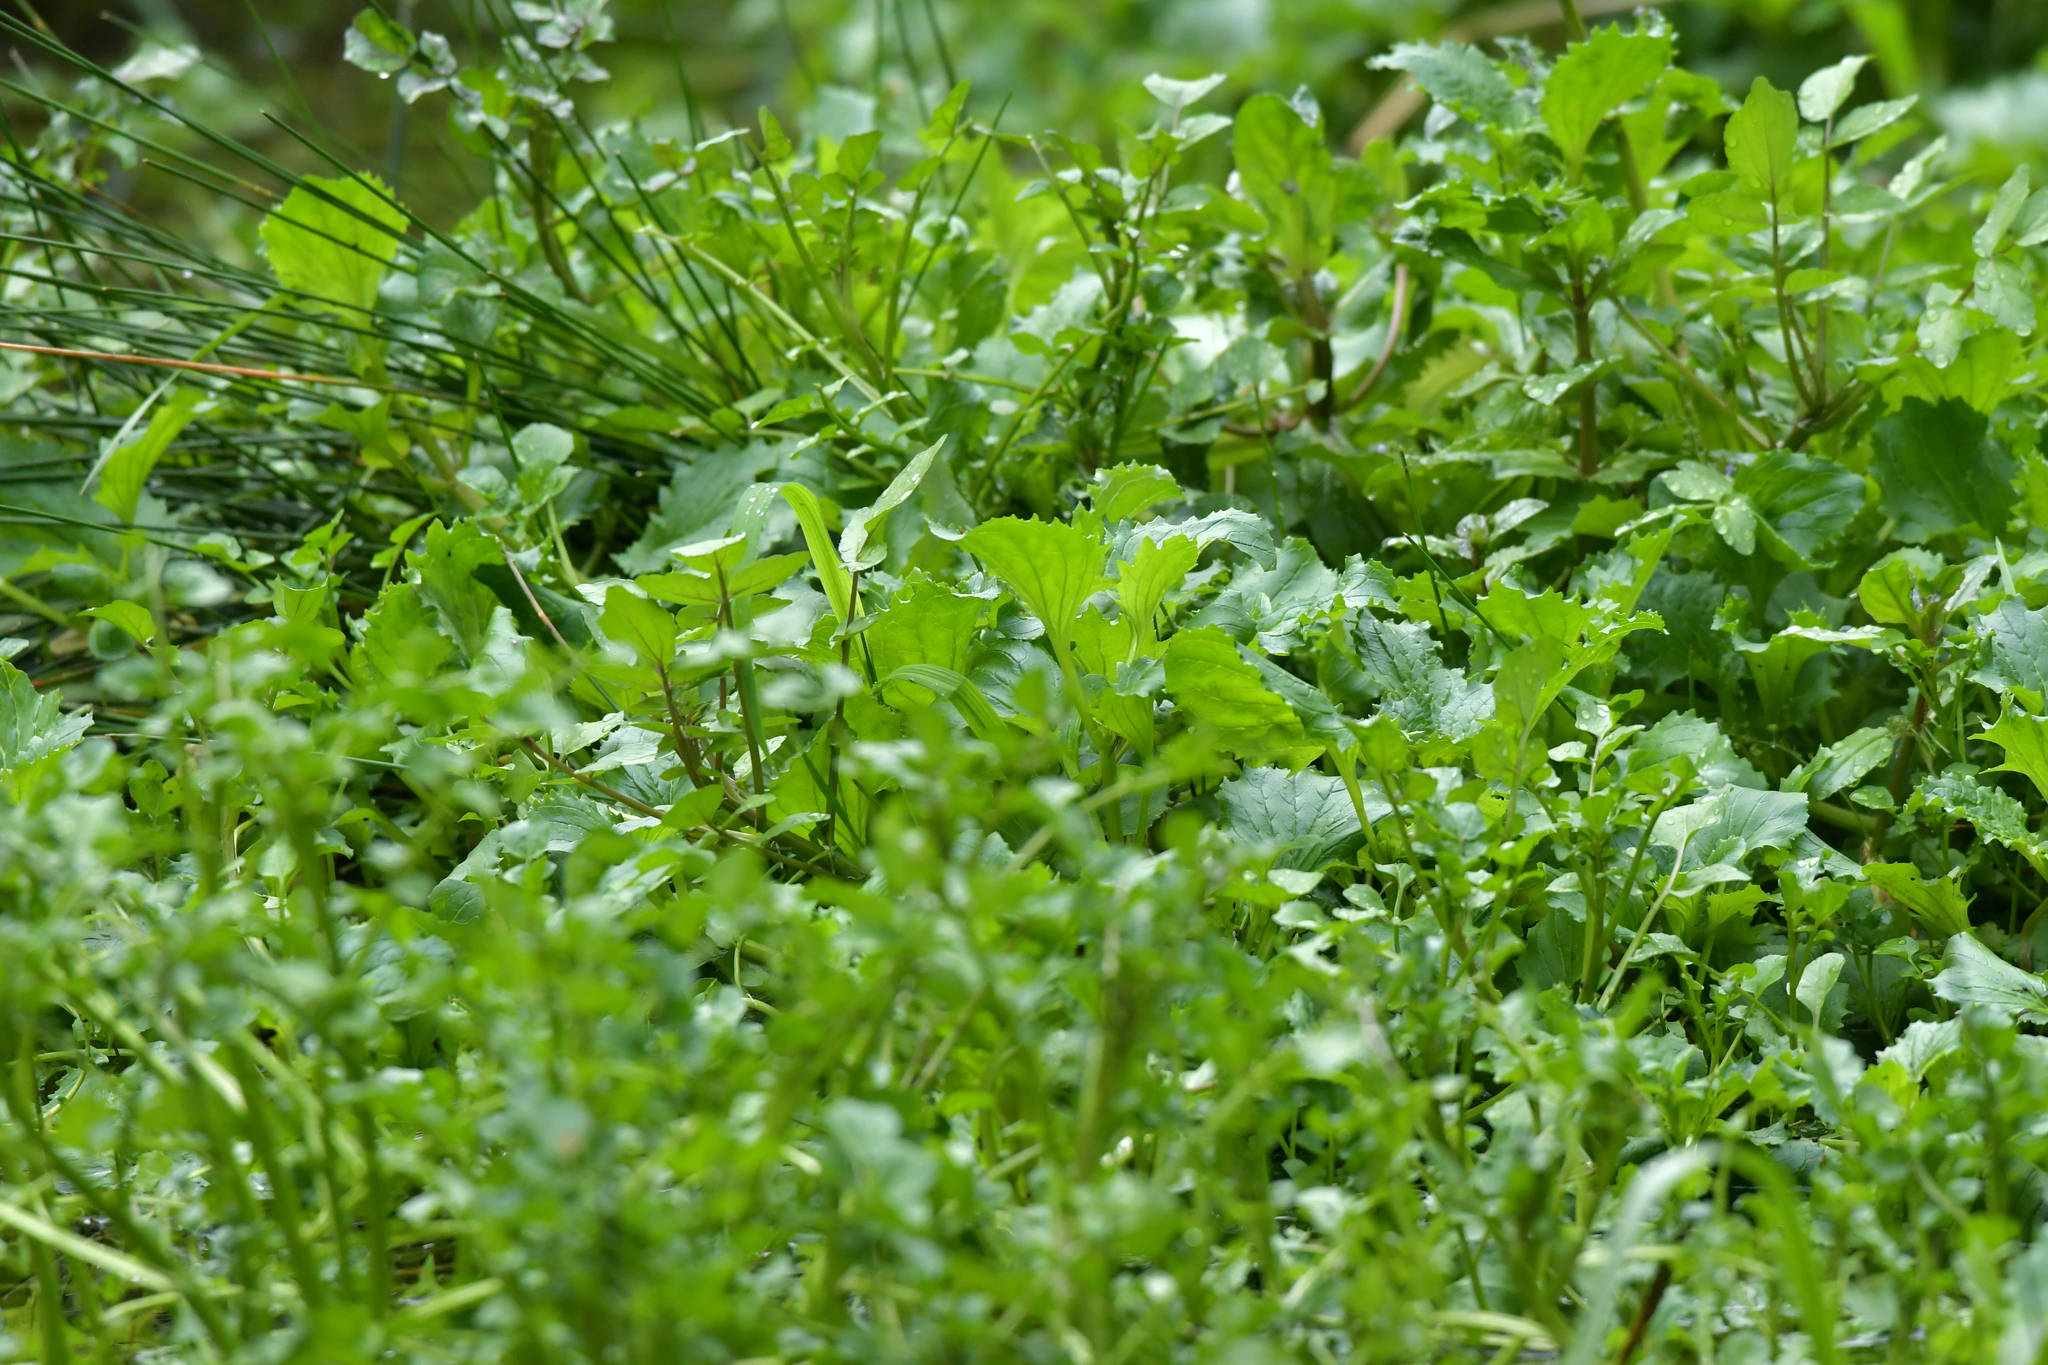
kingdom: Plantae
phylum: Tracheophyta
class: Magnoliopsida
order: Lamiales
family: Phrymaceae
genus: Erythranthe
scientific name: Erythranthe guttata
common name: Monkeyflower
